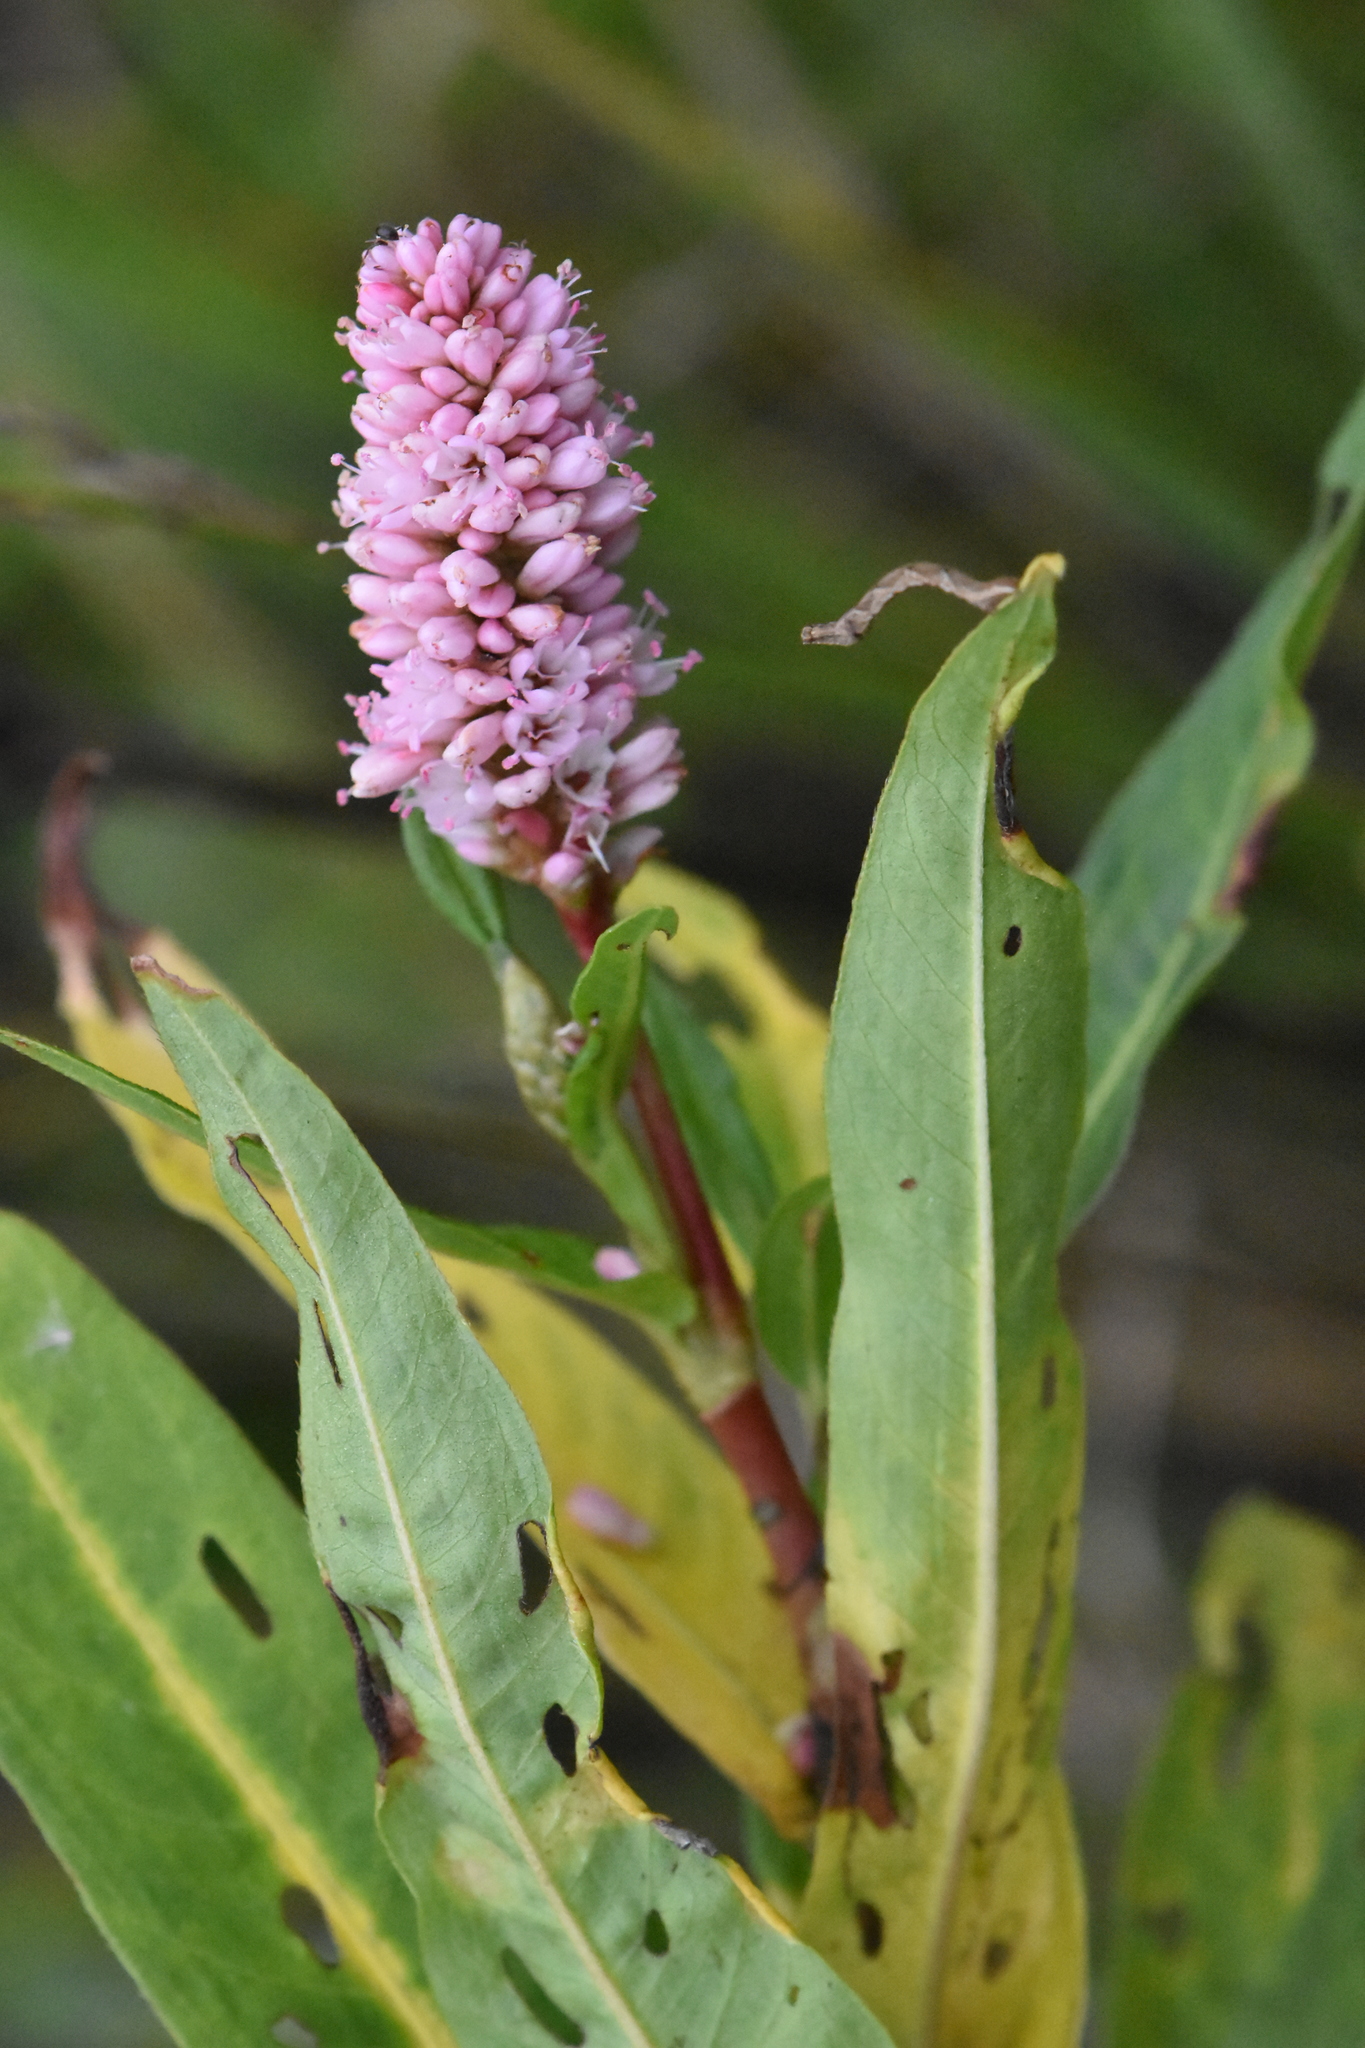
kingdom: Plantae
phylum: Tracheophyta
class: Magnoliopsida
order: Caryophyllales
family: Polygonaceae
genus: Persicaria
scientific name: Persicaria amphibia
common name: Amphibious bistort
